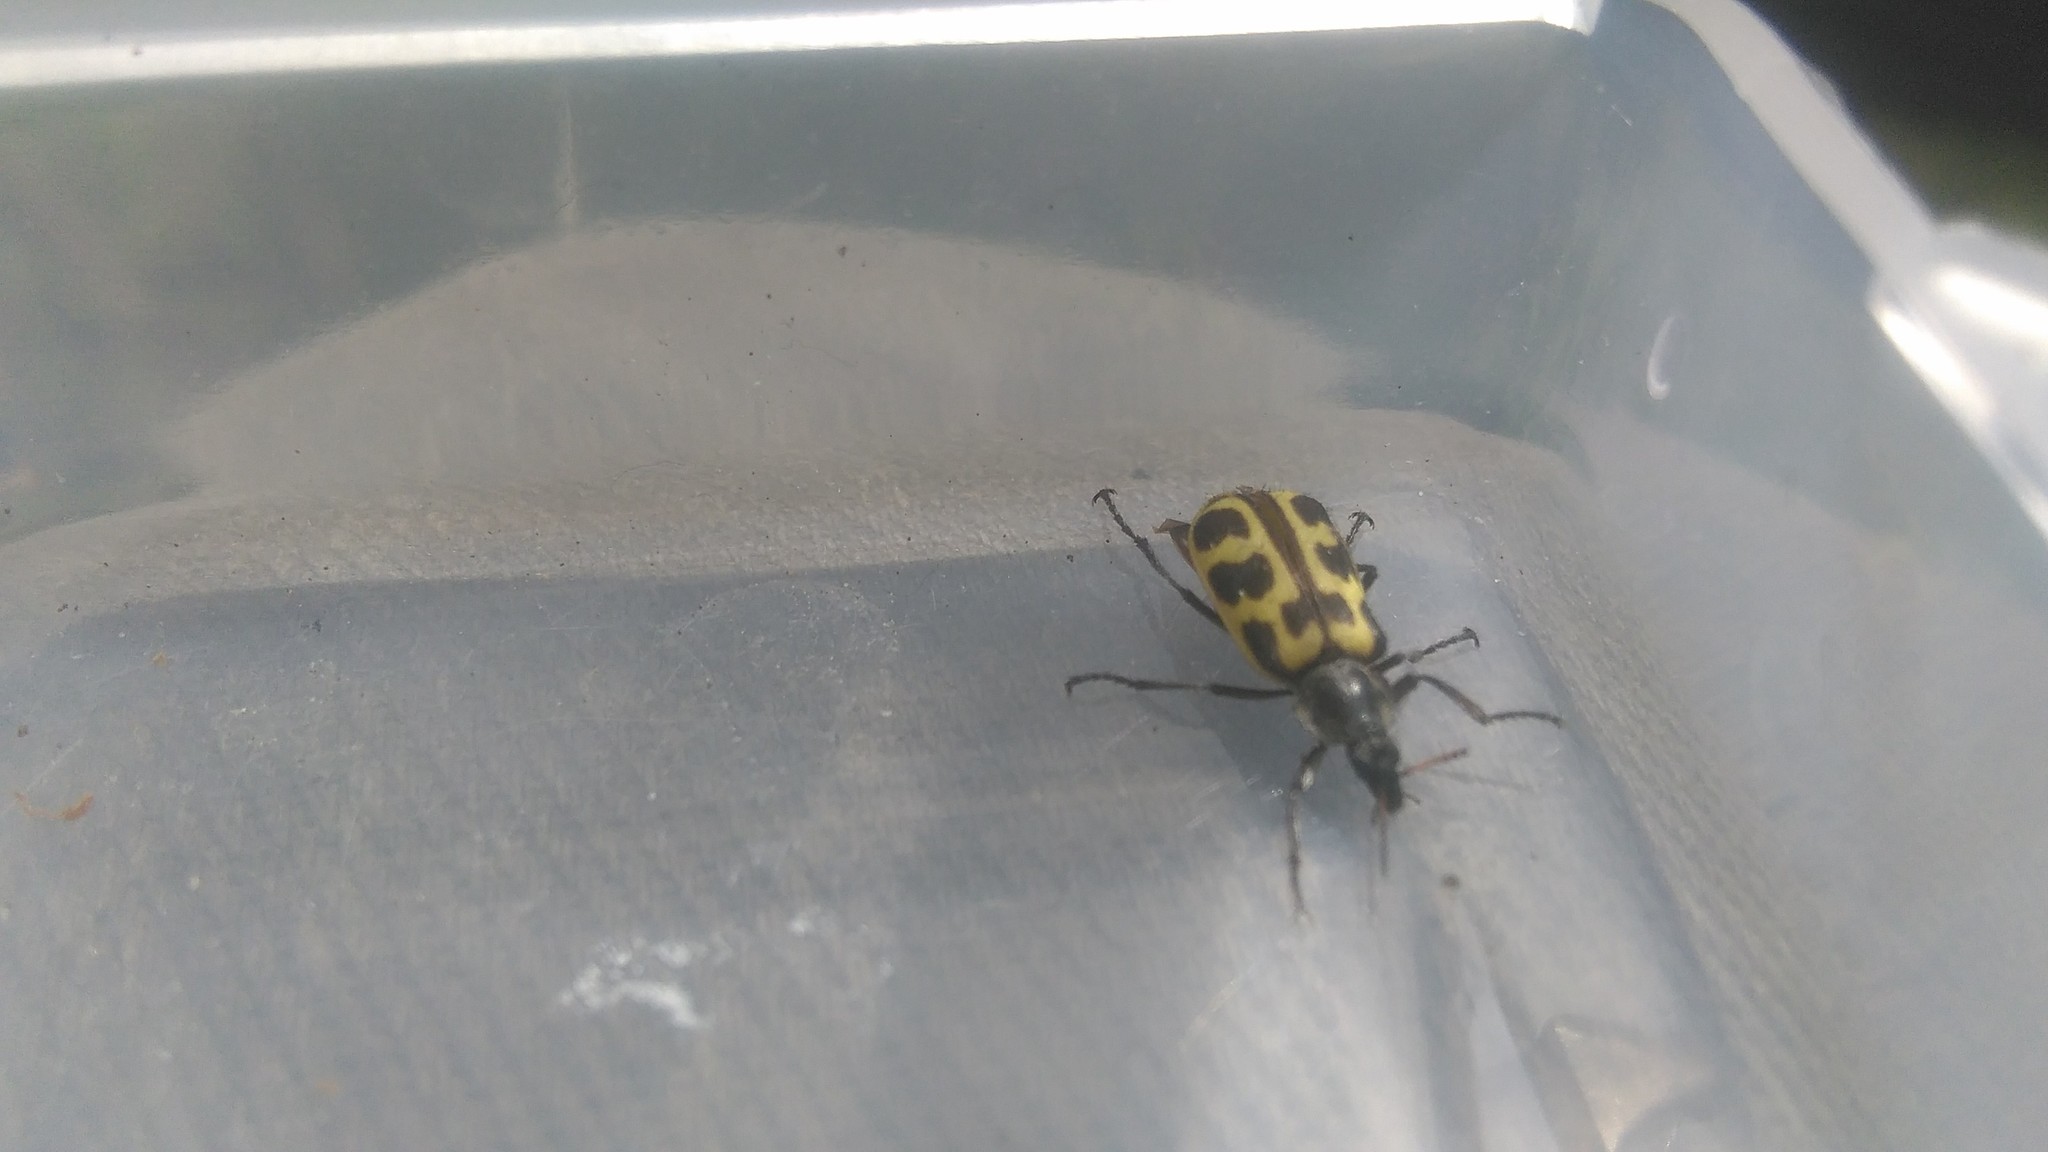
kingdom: Animalia
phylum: Arthropoda
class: Insecta
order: Coleoptera
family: Melyridae
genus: Astylus
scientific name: Astylus atromaculatus
